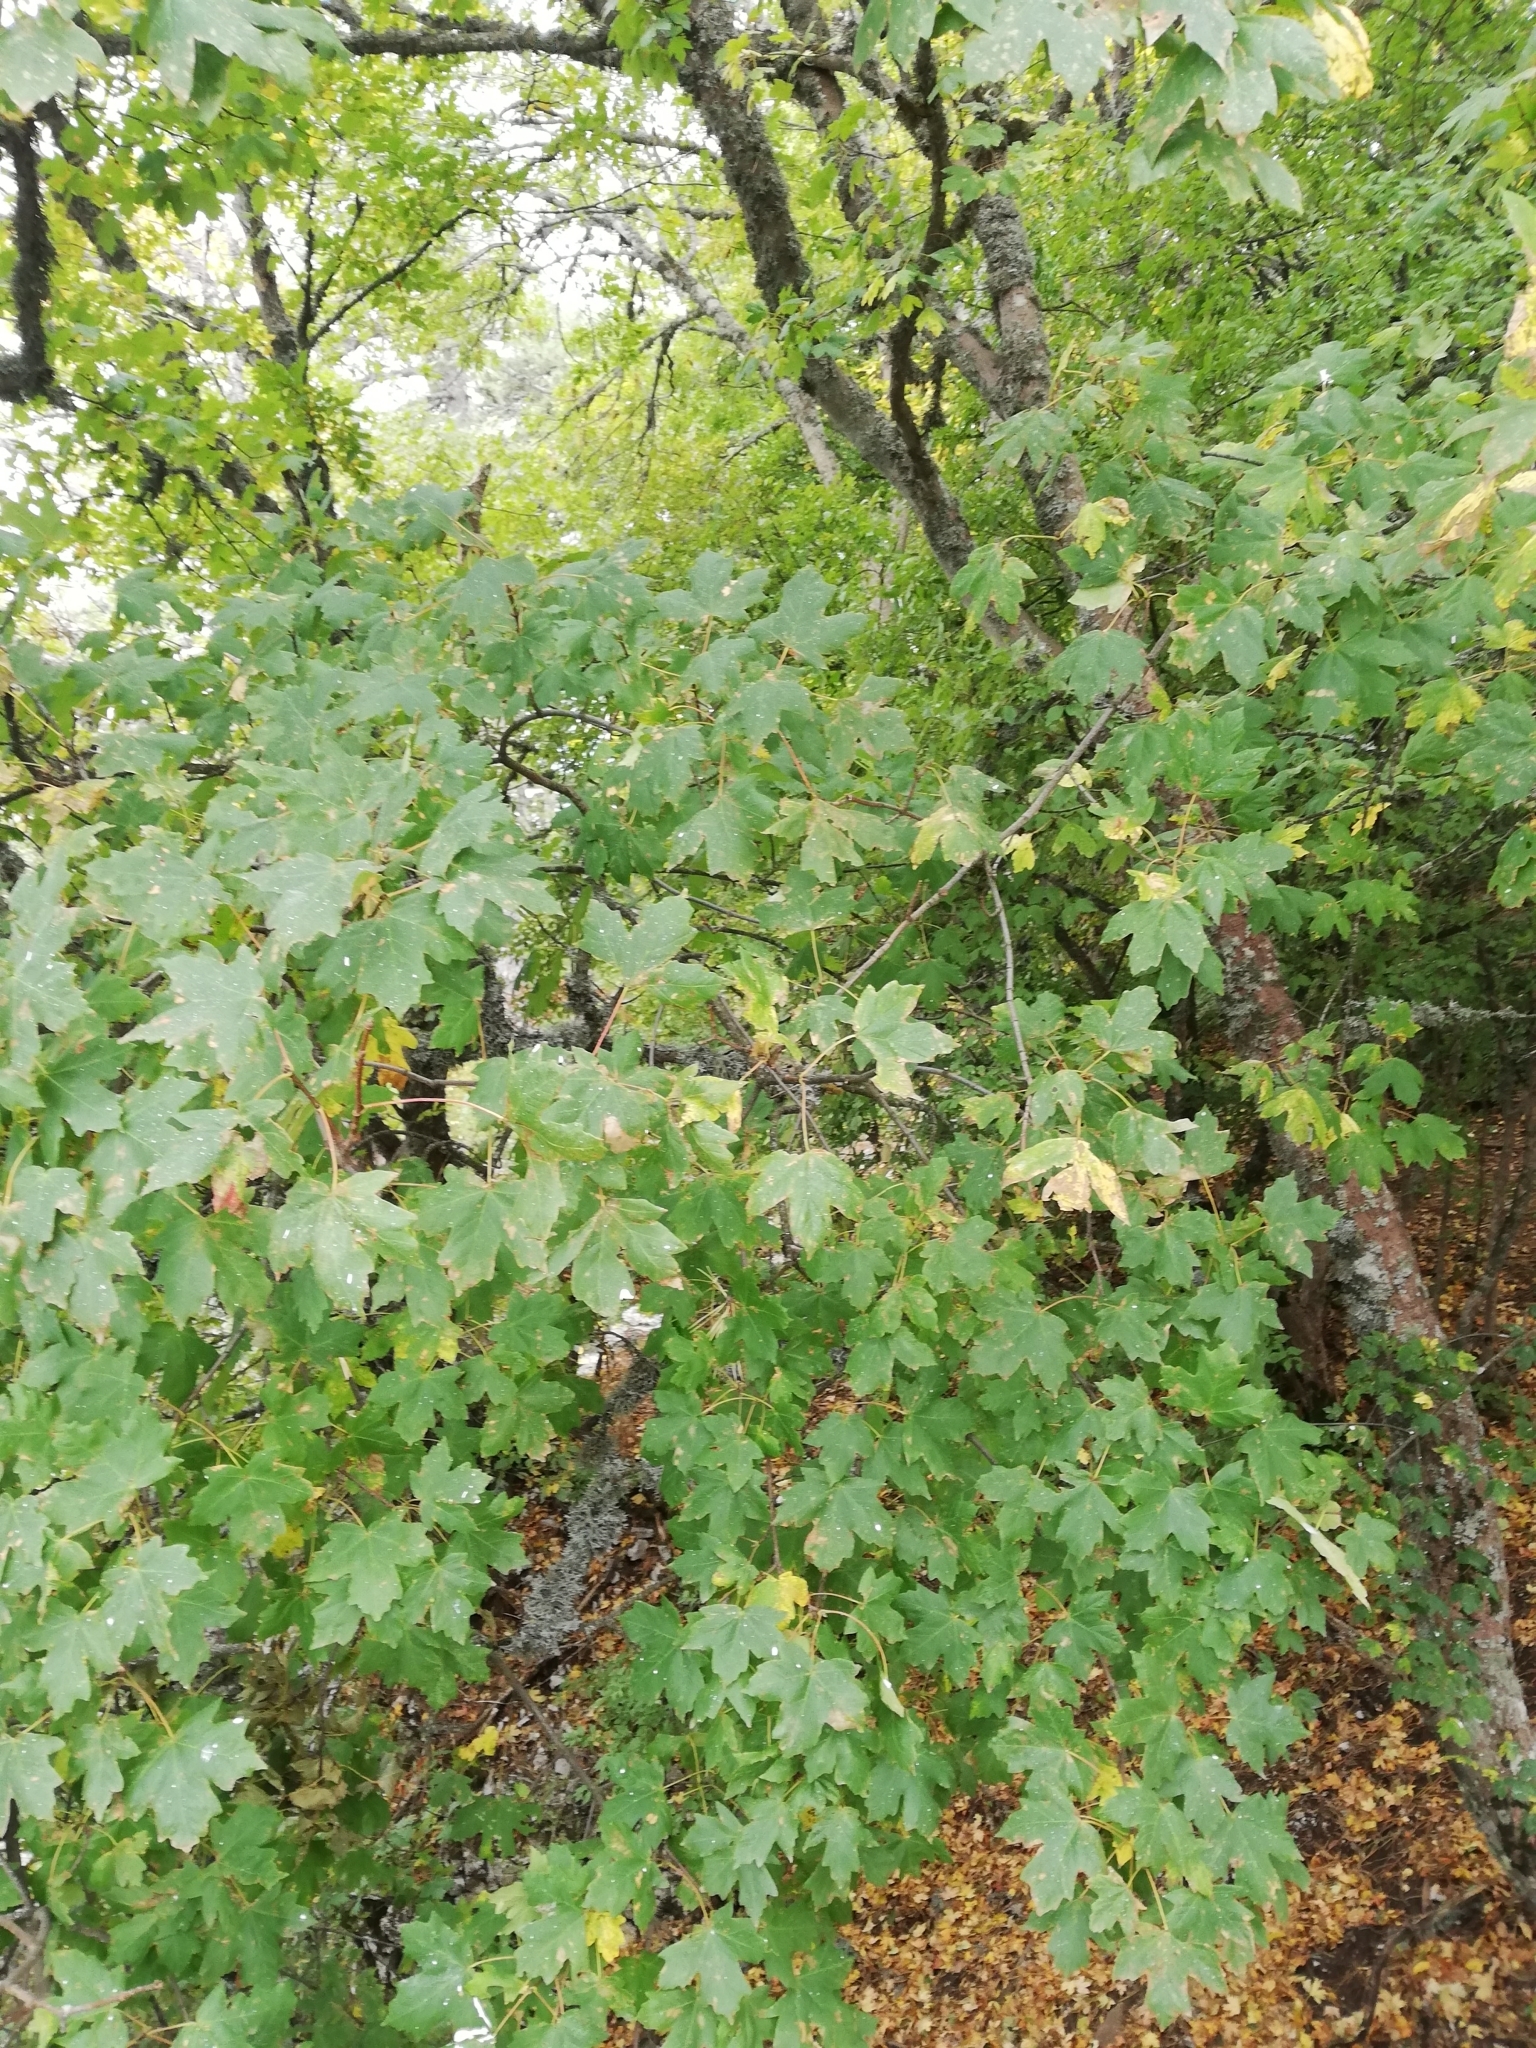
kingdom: Plantae
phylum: Tracheophyta
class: Magnoliopsida
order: Sapindales
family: Sapindaceae
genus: Acer
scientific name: Acer campestre
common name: Field maple
